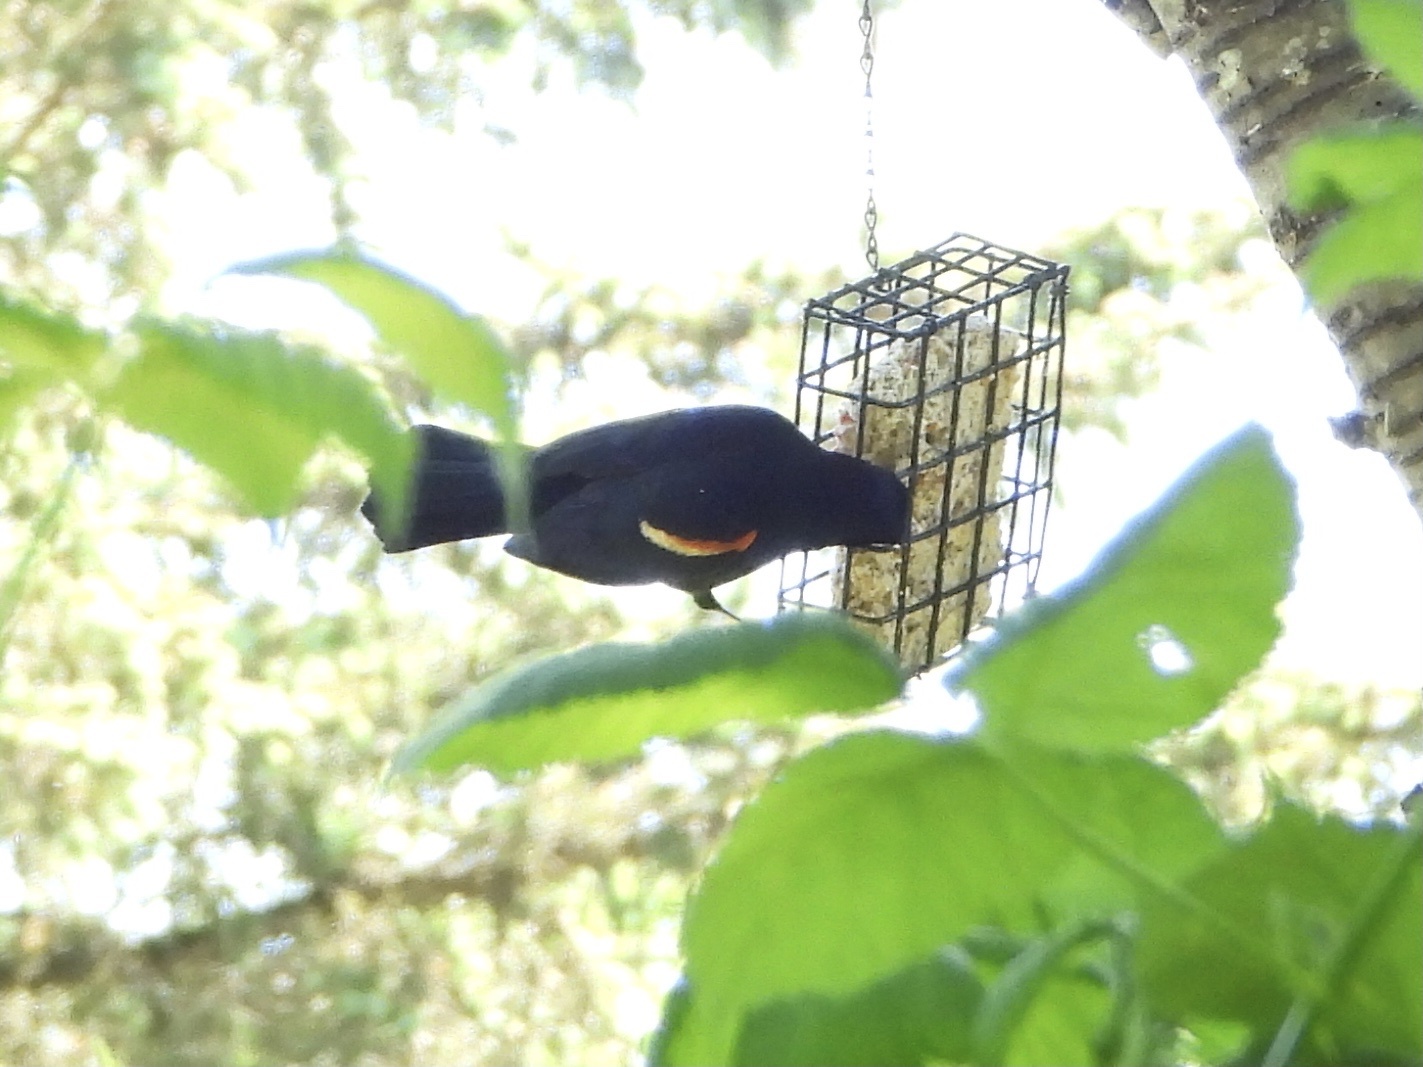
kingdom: Animalia
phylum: Chordata
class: Aves
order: Passeriformes
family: Icteridae
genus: Agelaius
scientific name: Agelaius phoeniceus
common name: Red-winged blackbird
